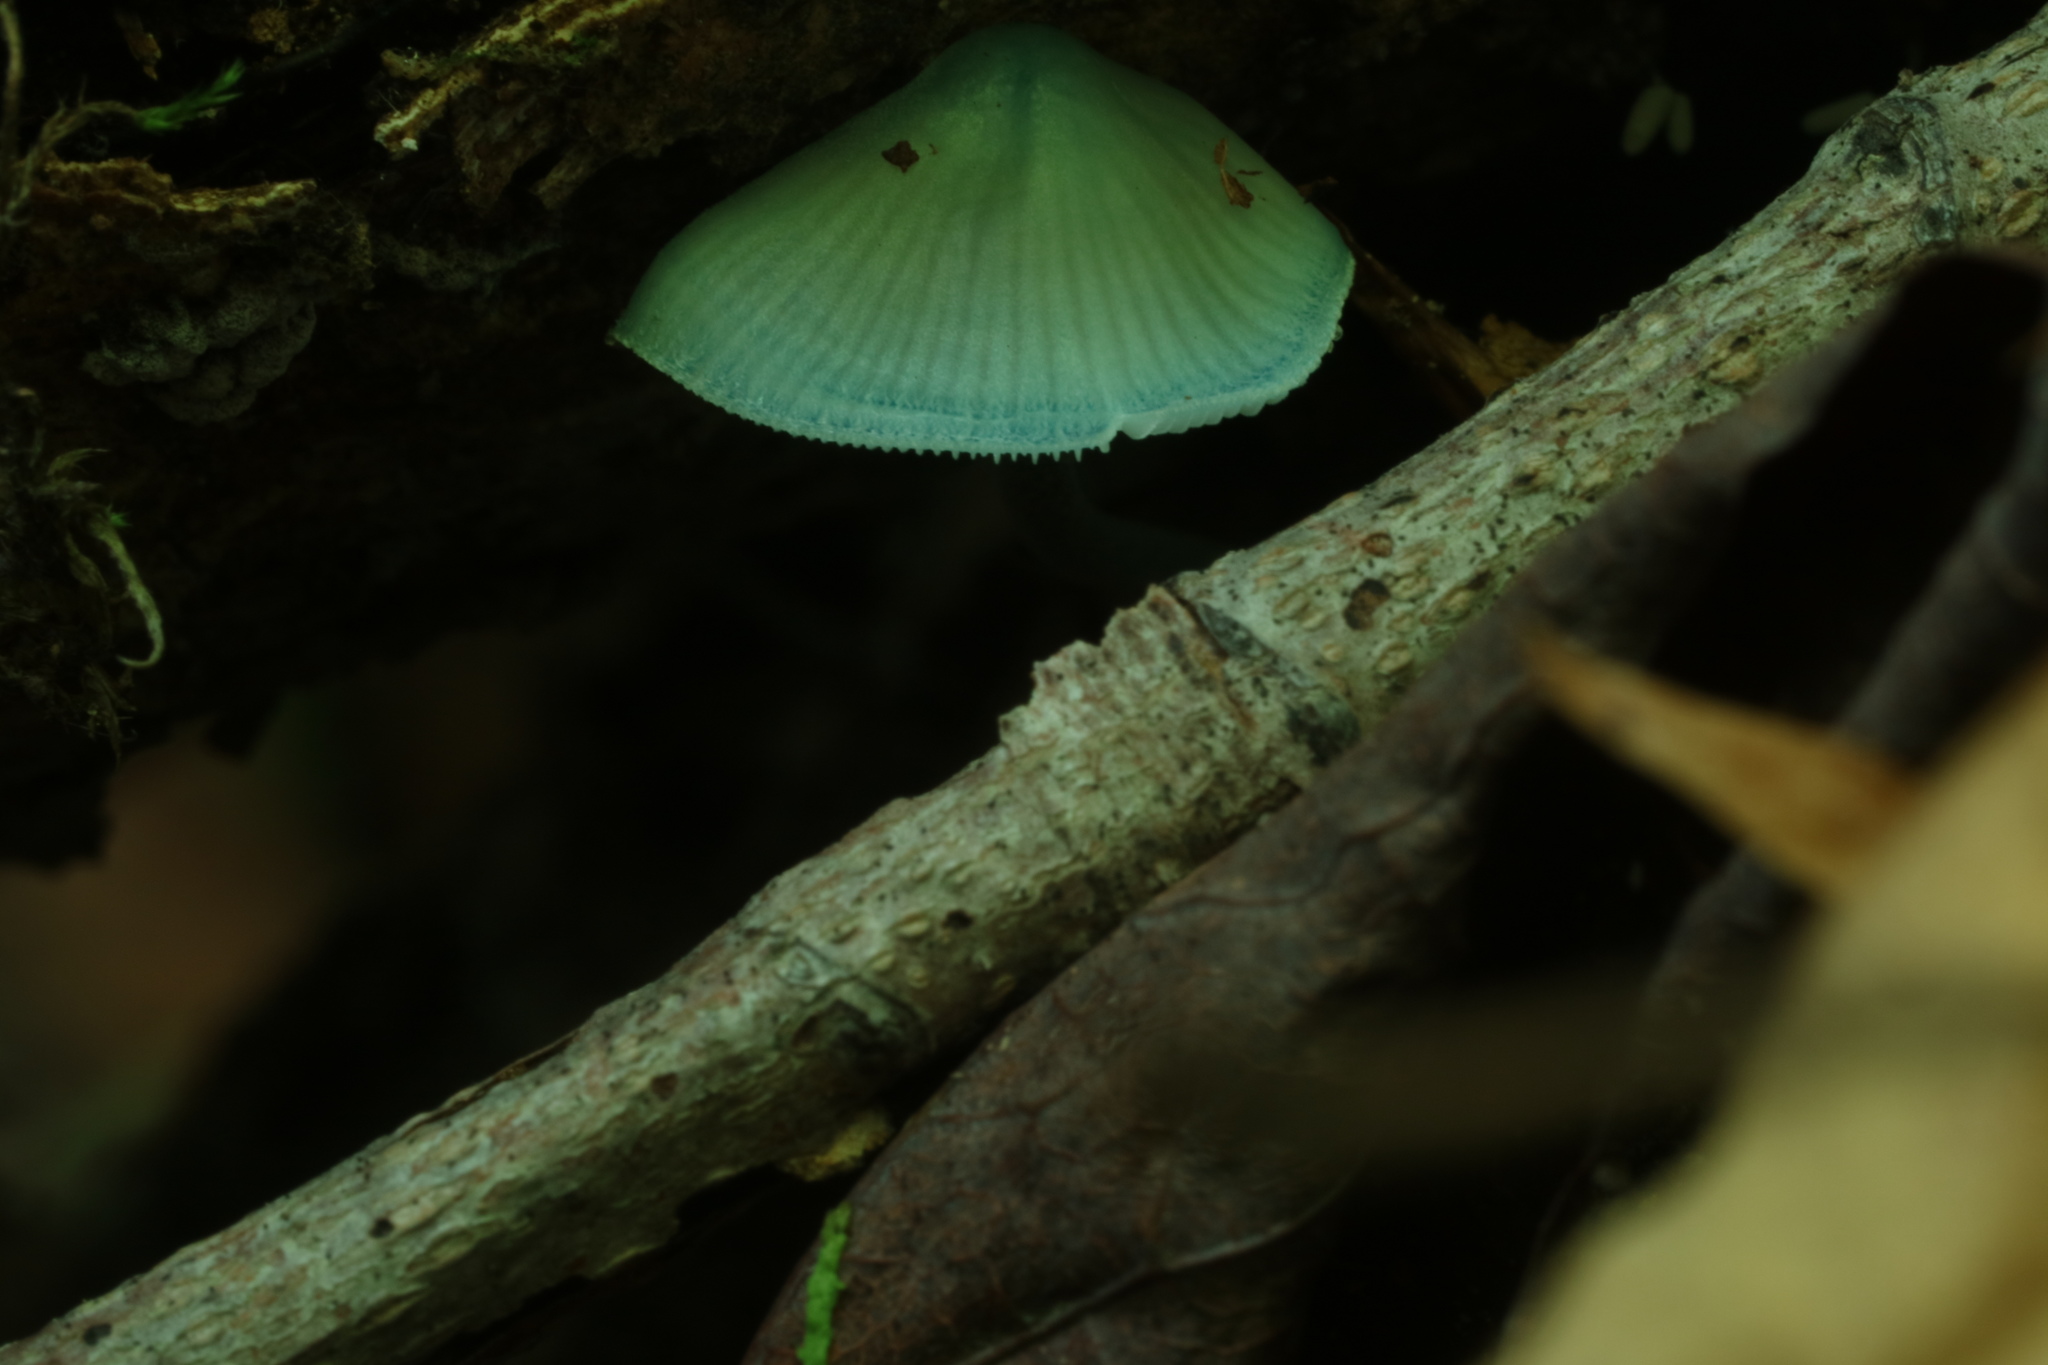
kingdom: Fungi
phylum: Basidiomycota
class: Agaricomycetes
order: Agaricales
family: Mycenaceae
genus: Mycena
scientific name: Mycena subcaerulea
